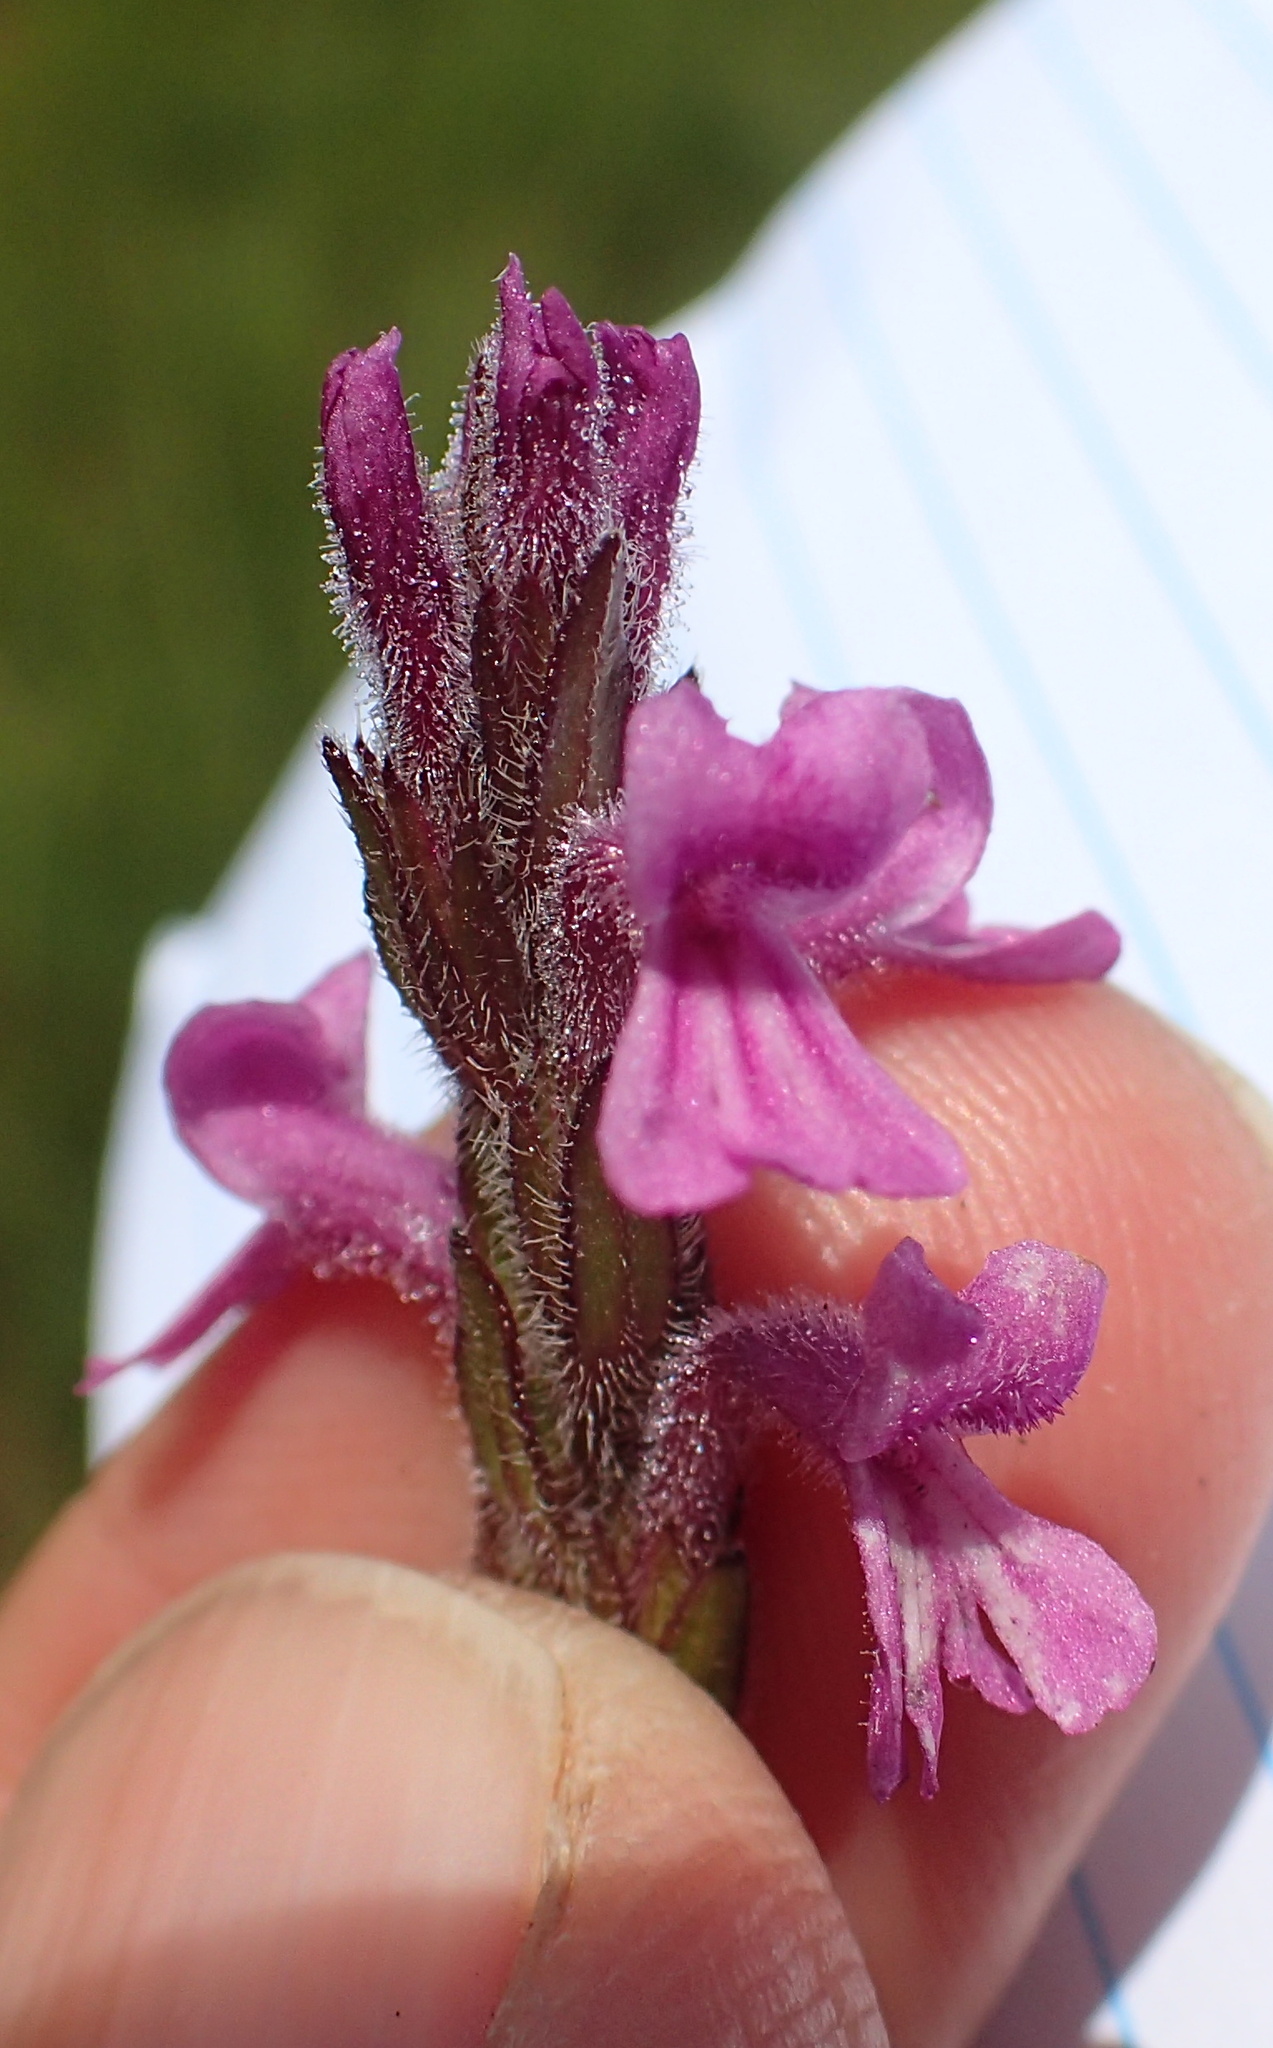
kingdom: Plantae
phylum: Tracheophyta
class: Magnoliopsida
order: Lamiales
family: Orobanchaceae
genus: Striga
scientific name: Striga bilabiata
